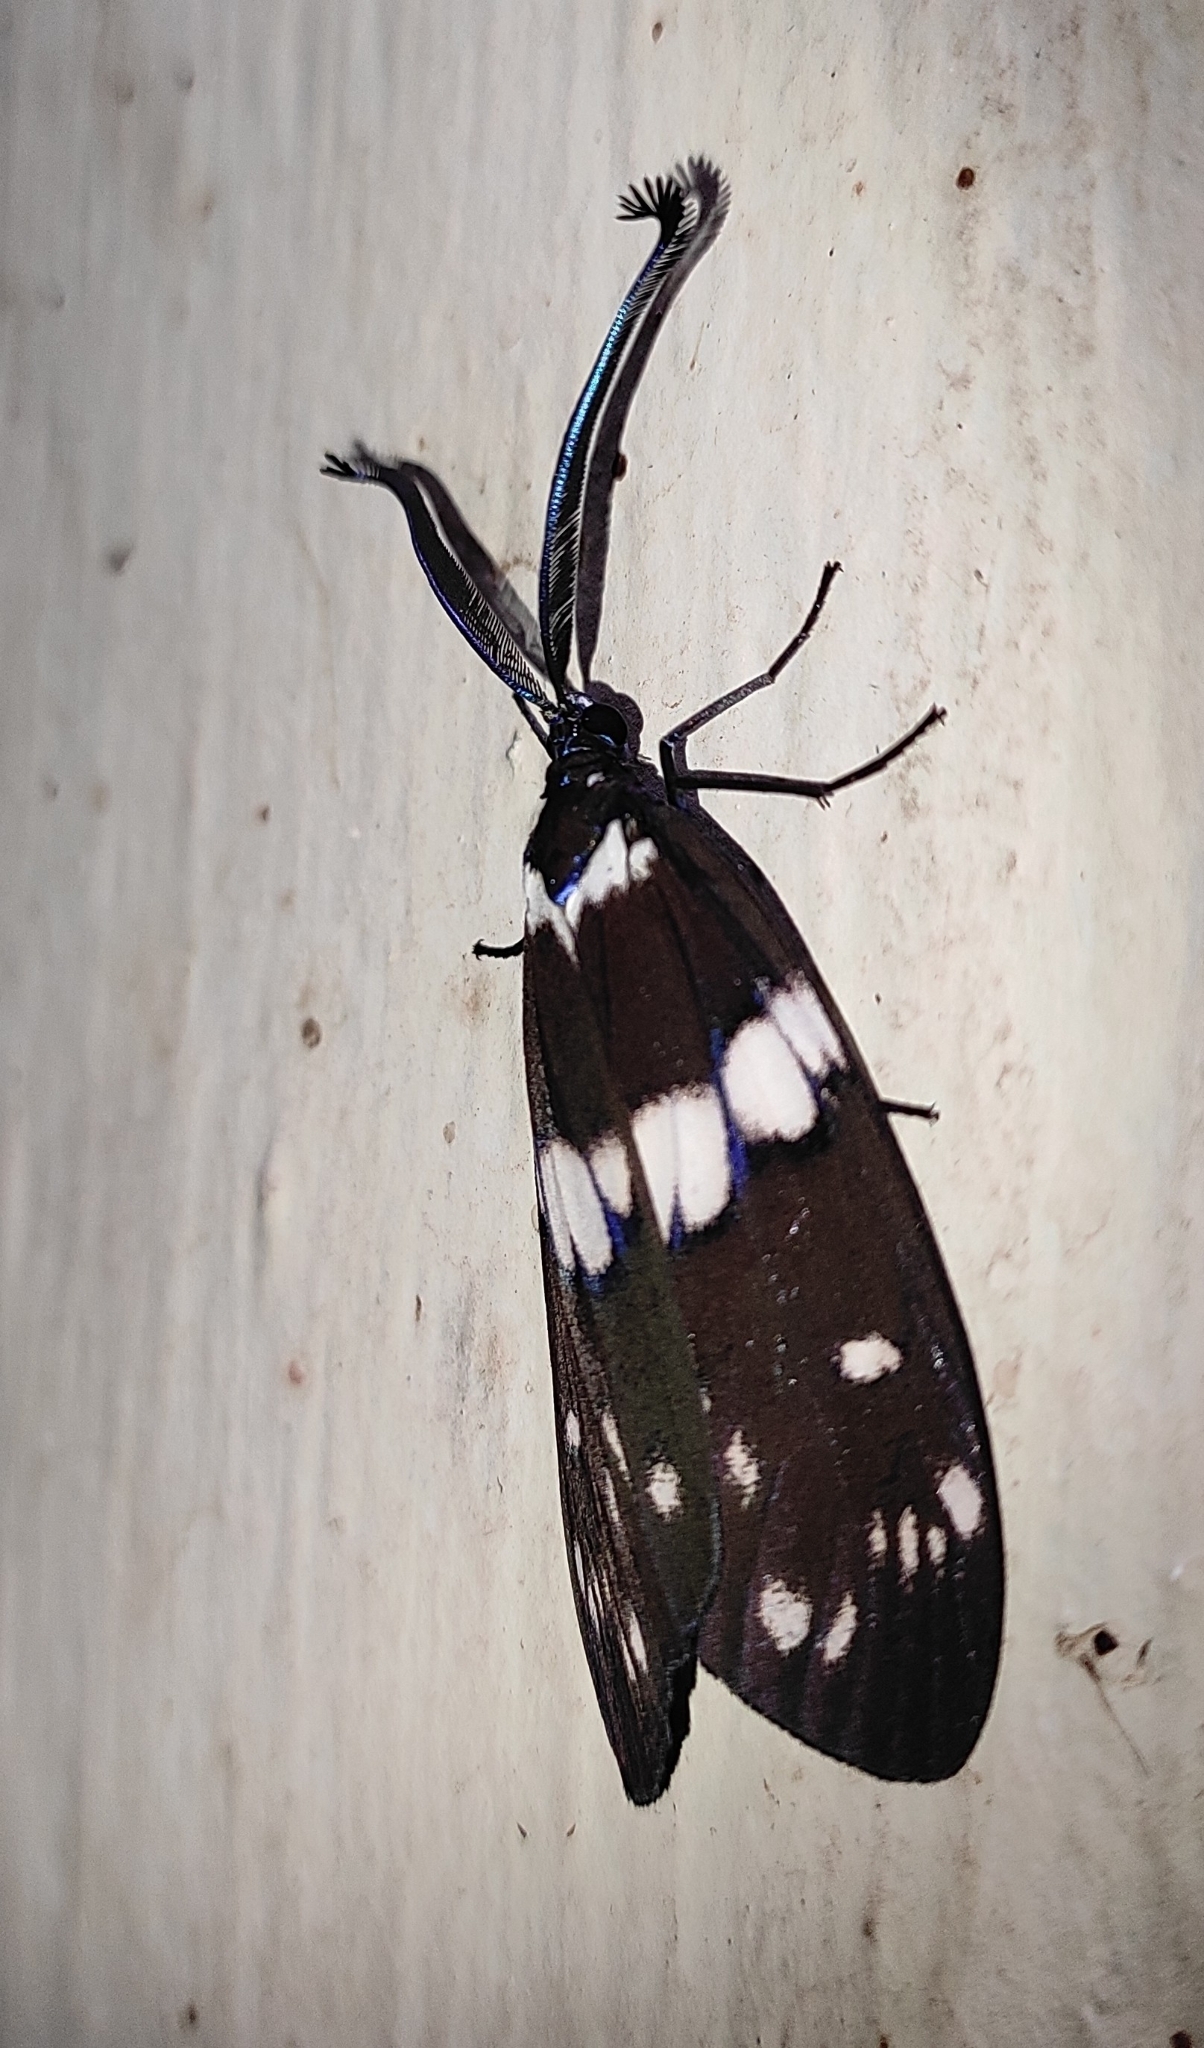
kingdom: Animalia
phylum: Arthropoda
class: Insecta
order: Lepidoptera
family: Zygaenidae
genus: Eterusia
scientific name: Eterusia aedea
